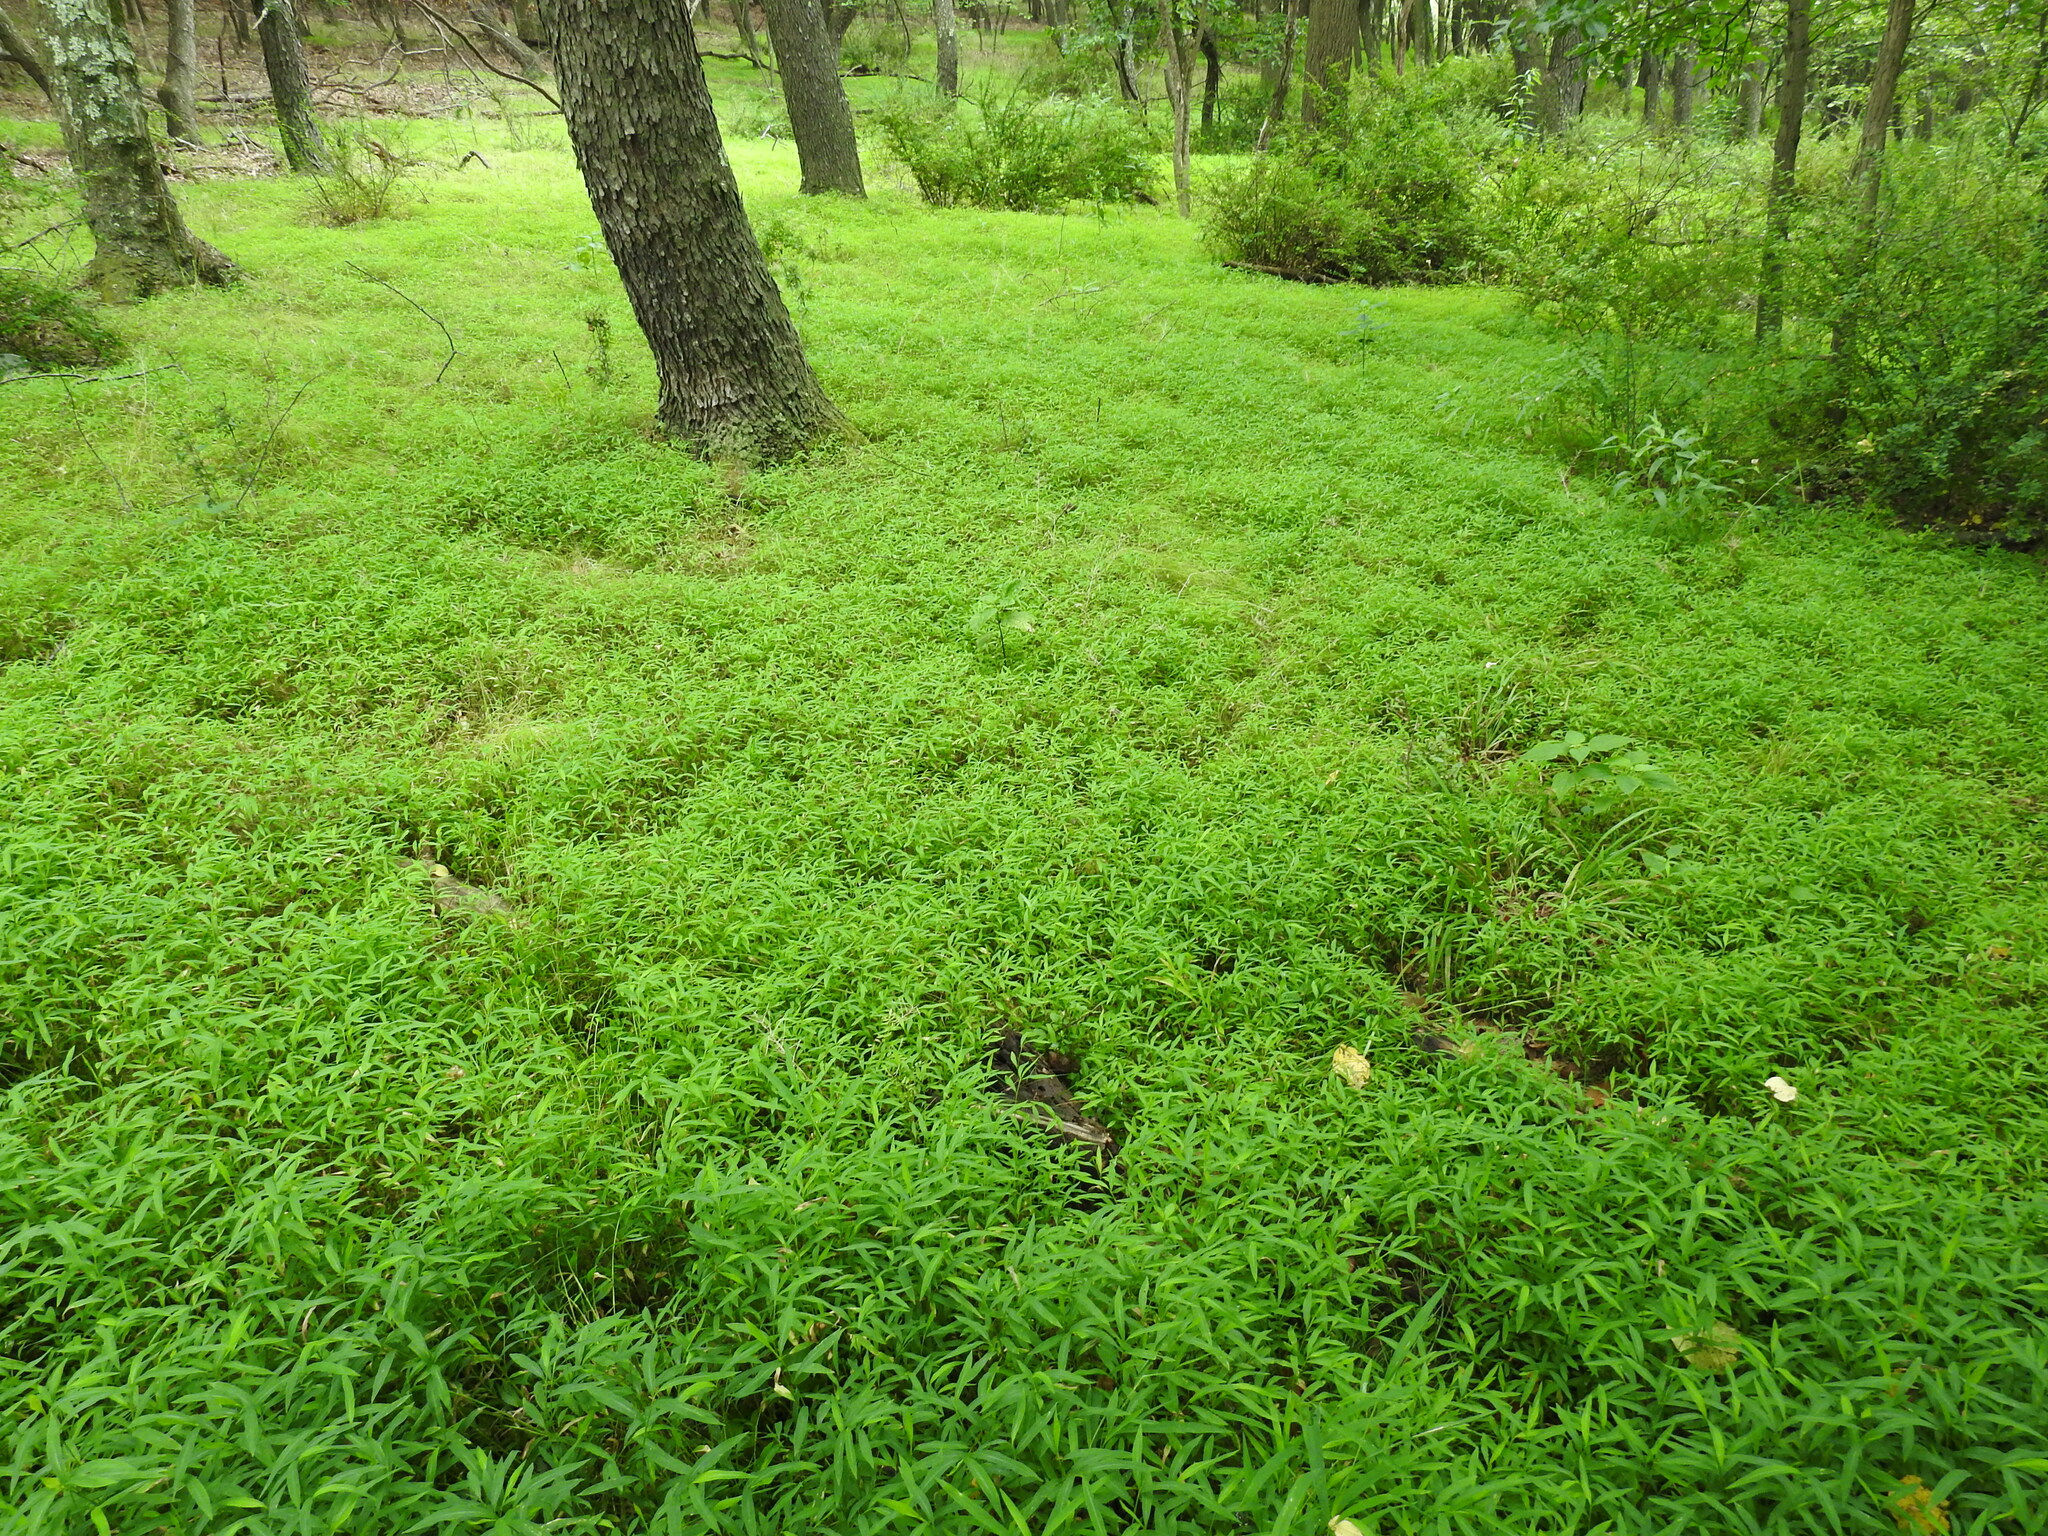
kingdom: Plantae
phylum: Tracheophyta
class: Liliopsida
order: Poales
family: Poaceae
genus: Microstegium
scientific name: Microstegium vimineum
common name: Japanese stiltgrass
